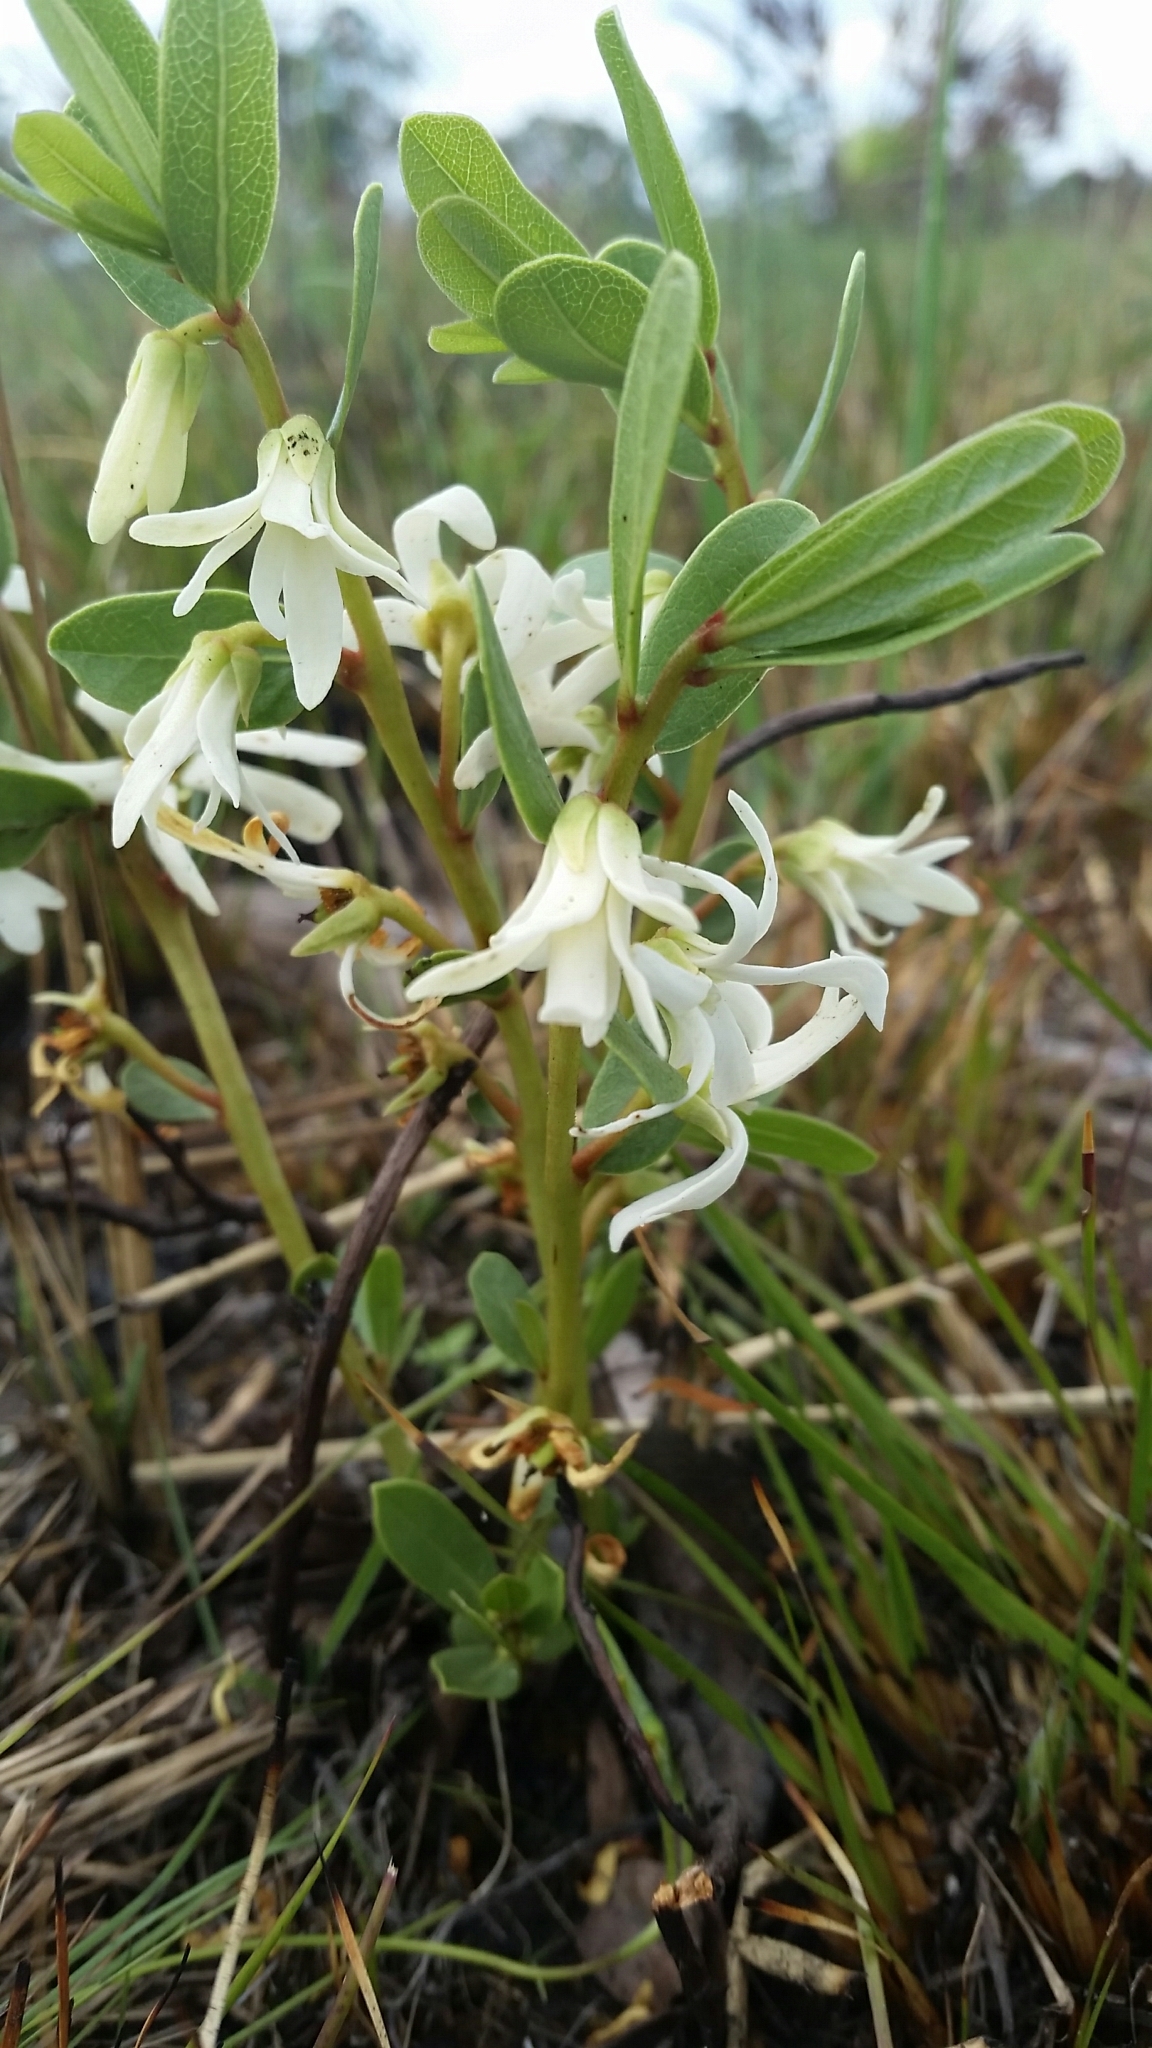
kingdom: Plantae
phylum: Tracheophyta
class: Magnoliopsida
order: Magnoliales
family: Annonaceae
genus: Asimina
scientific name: Asimina pulchella
